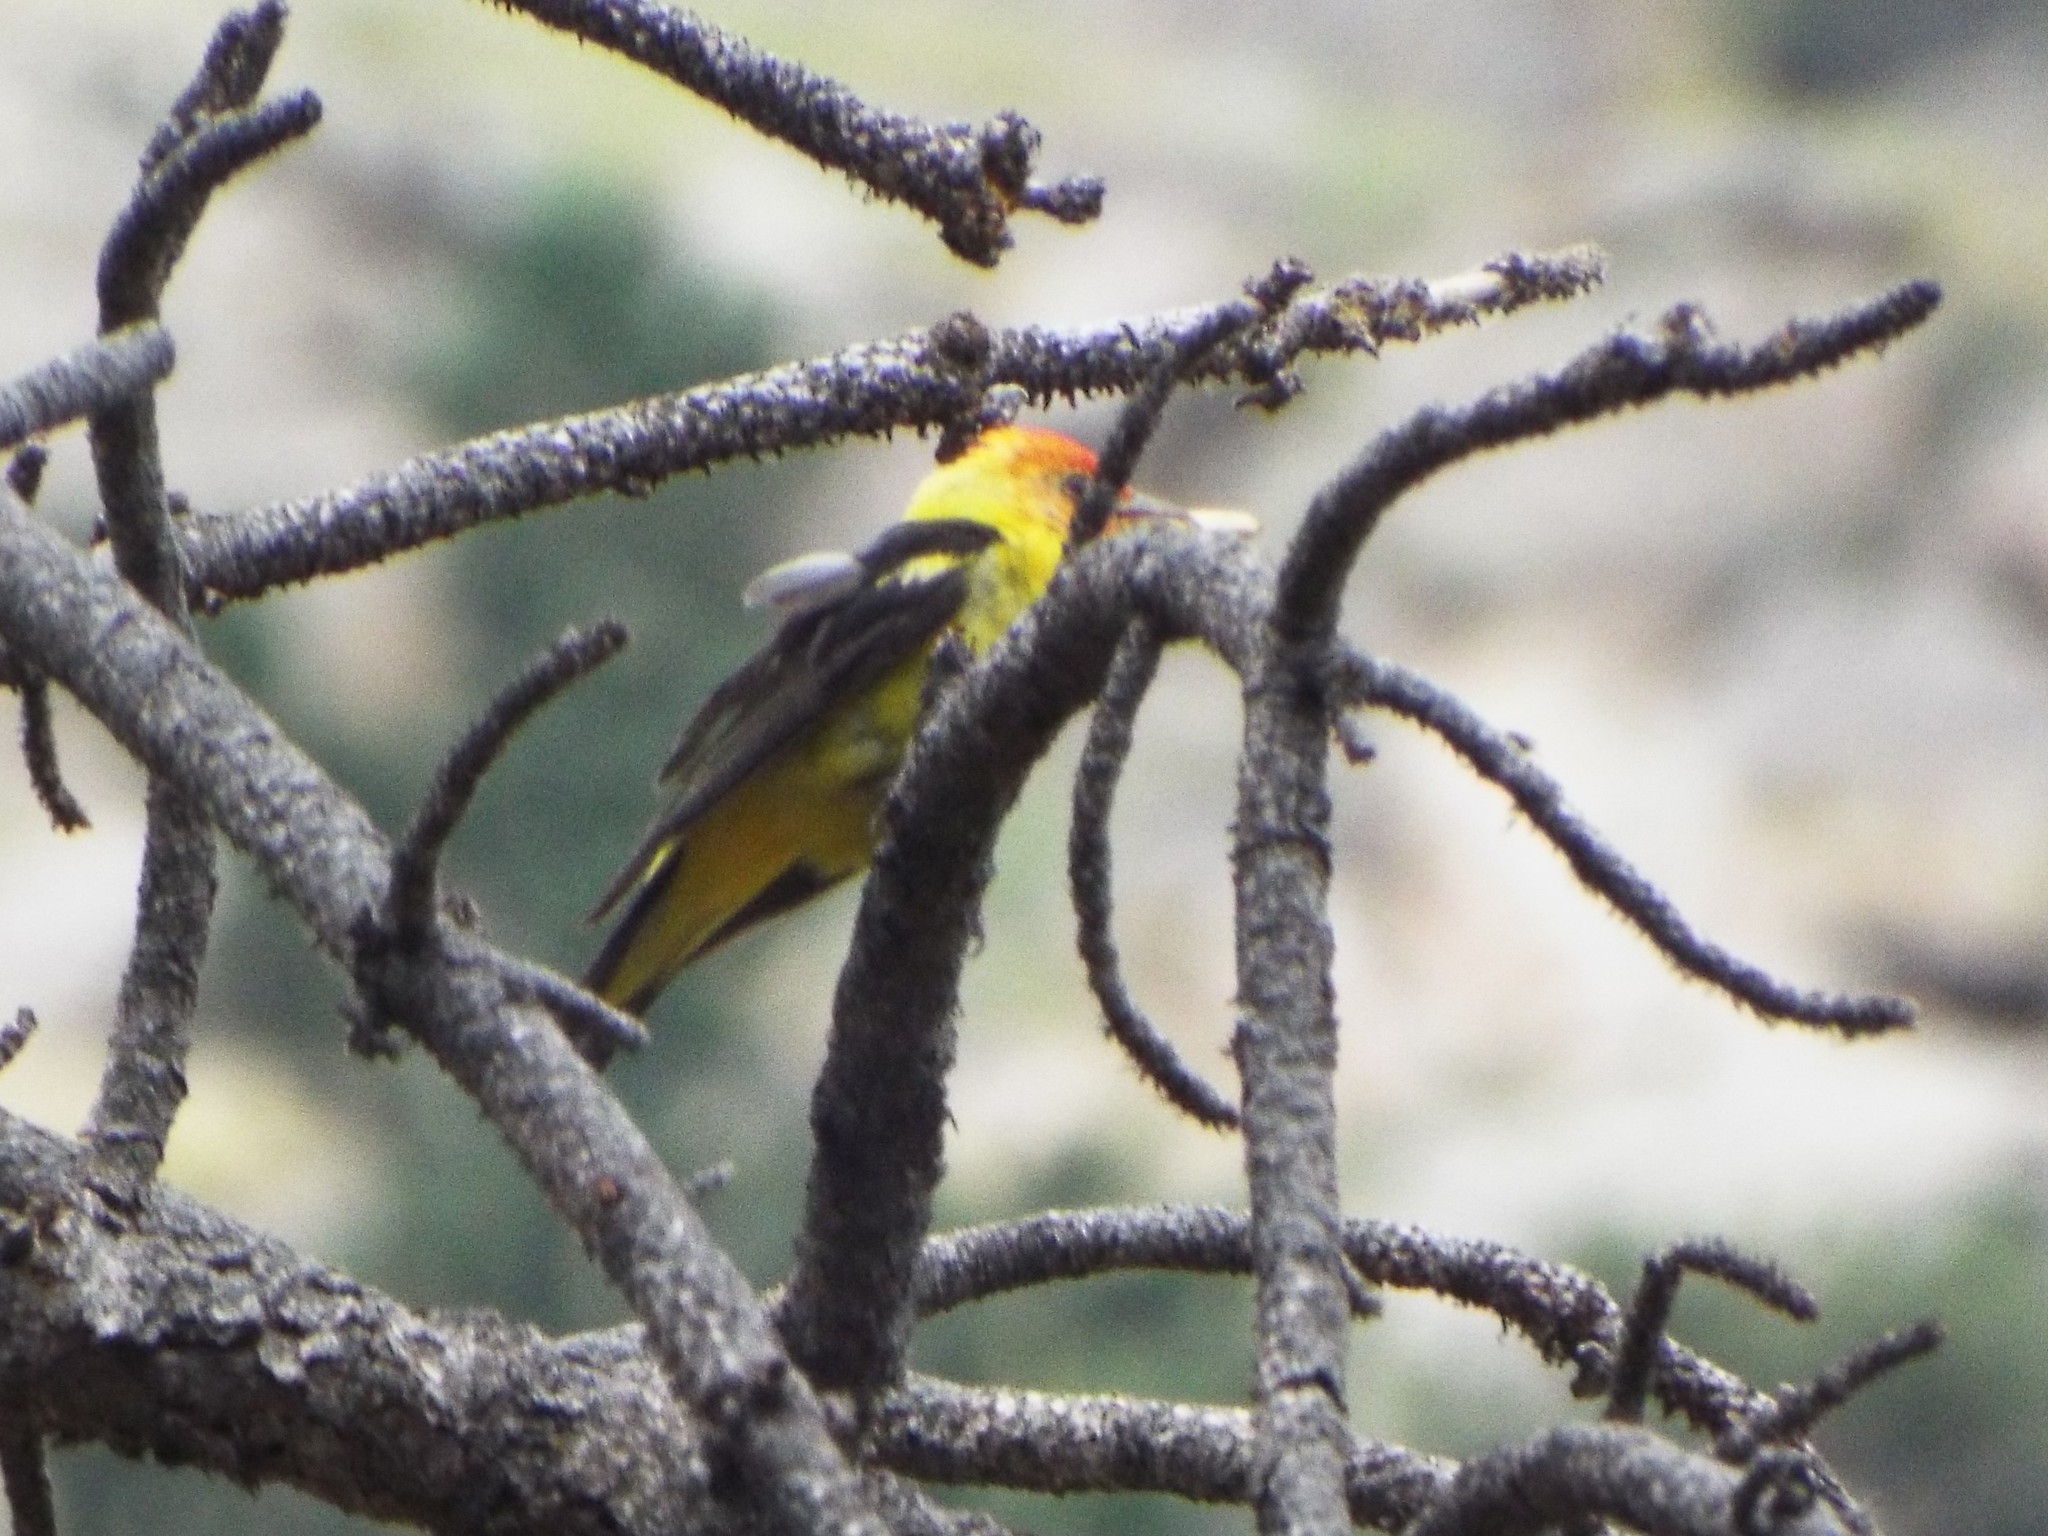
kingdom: Animalia
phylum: Chordata
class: Aves
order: Passeriformes
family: Cardinalidae
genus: Piranga
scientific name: Piranga ludoviciana
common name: Western tanager
